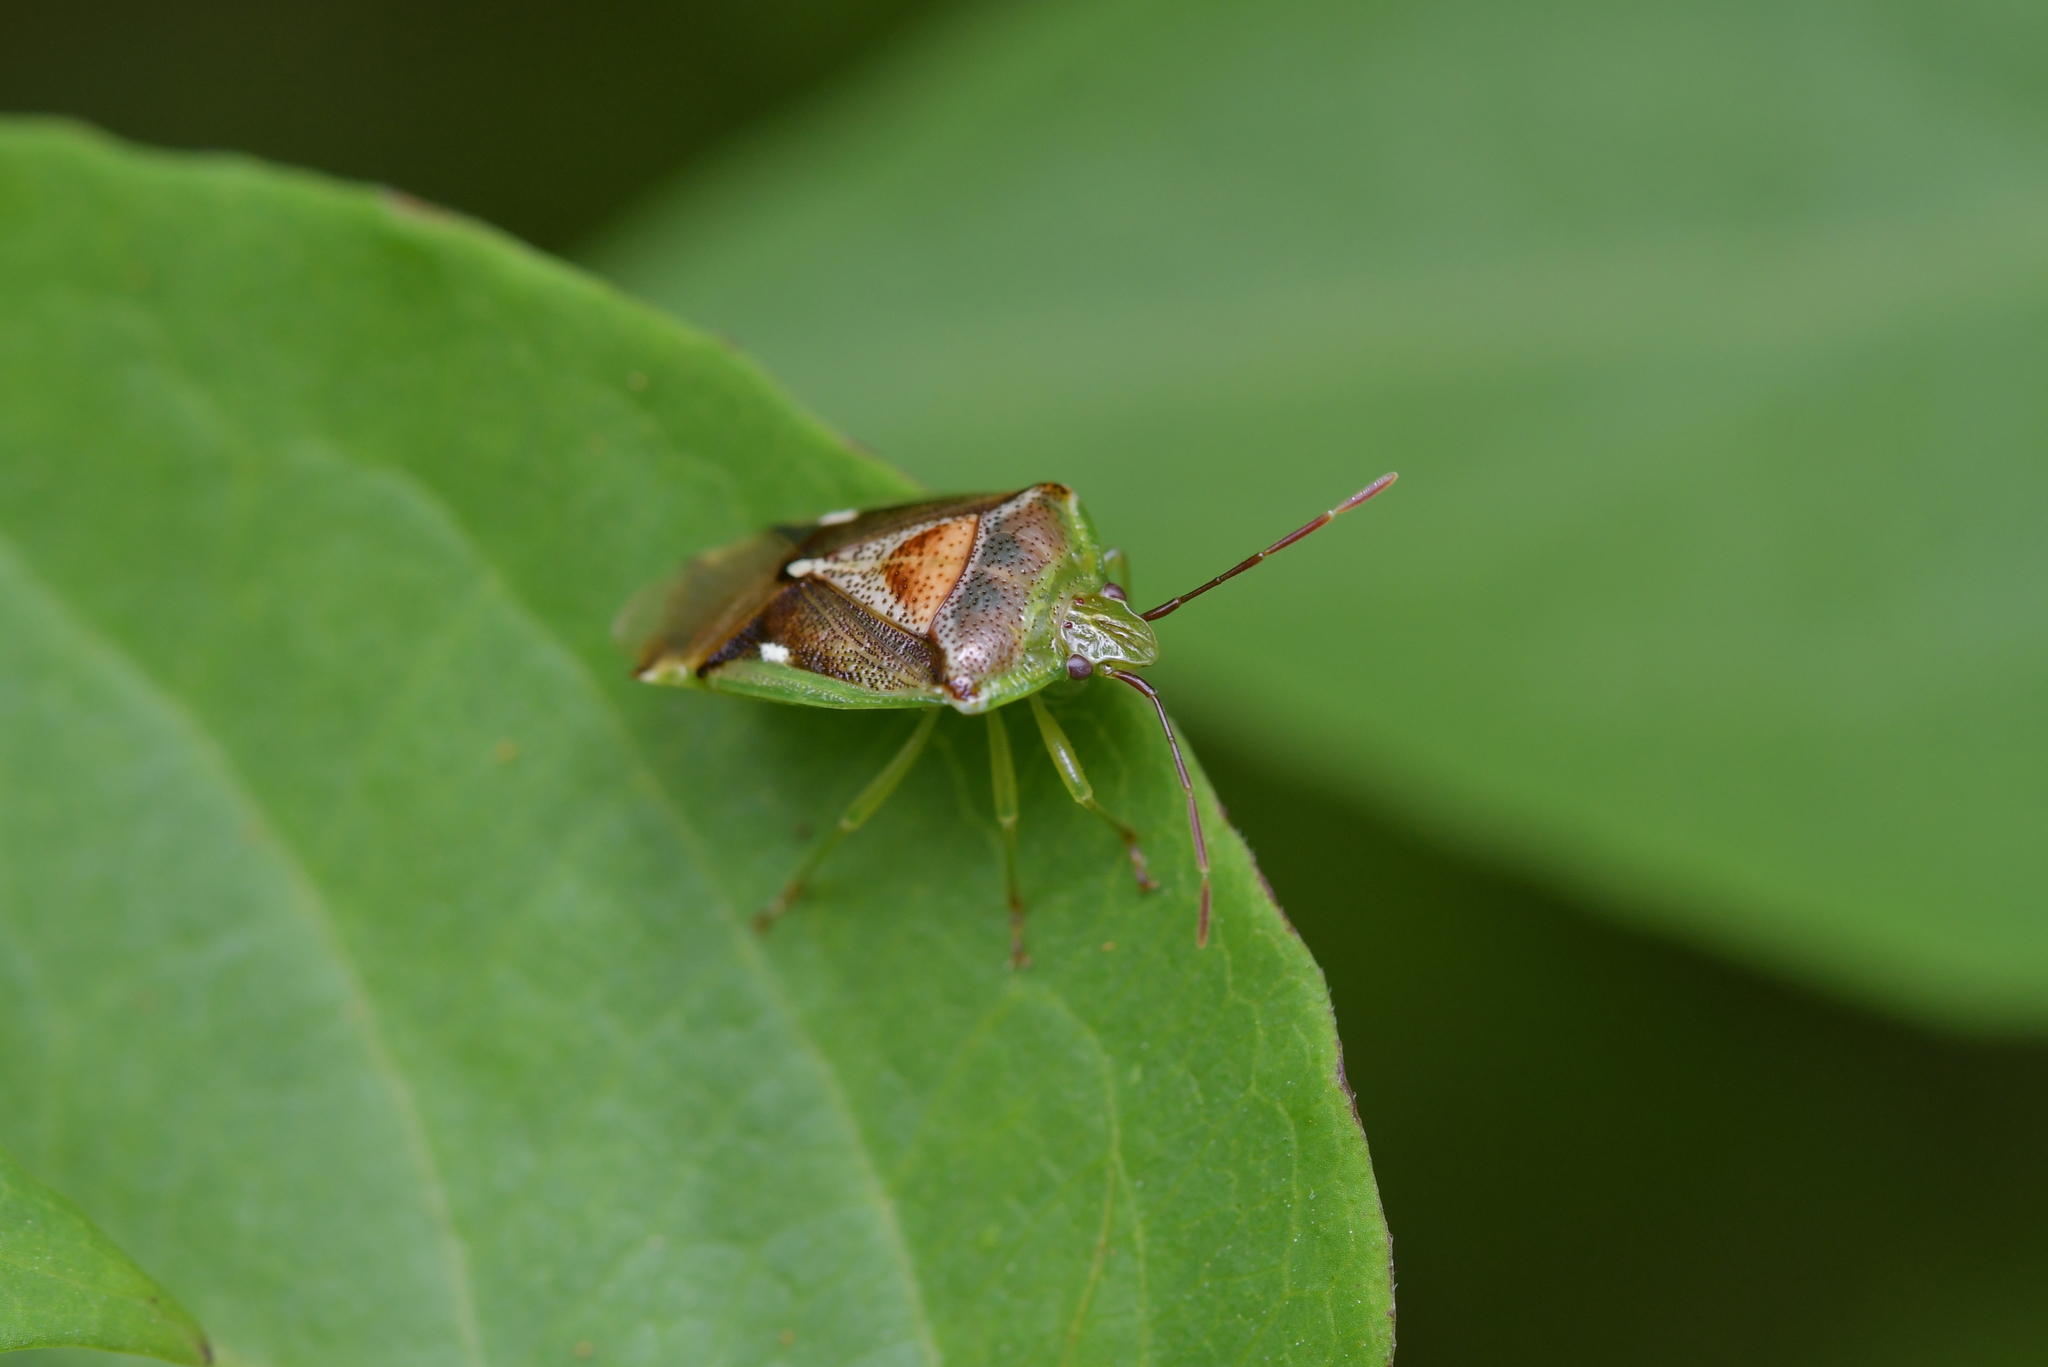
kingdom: Animalia
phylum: Arthropoda
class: Insecta
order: Hemiptera
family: Acanthosomatidae
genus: Oncacontias
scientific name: Oncacontias vittatus
